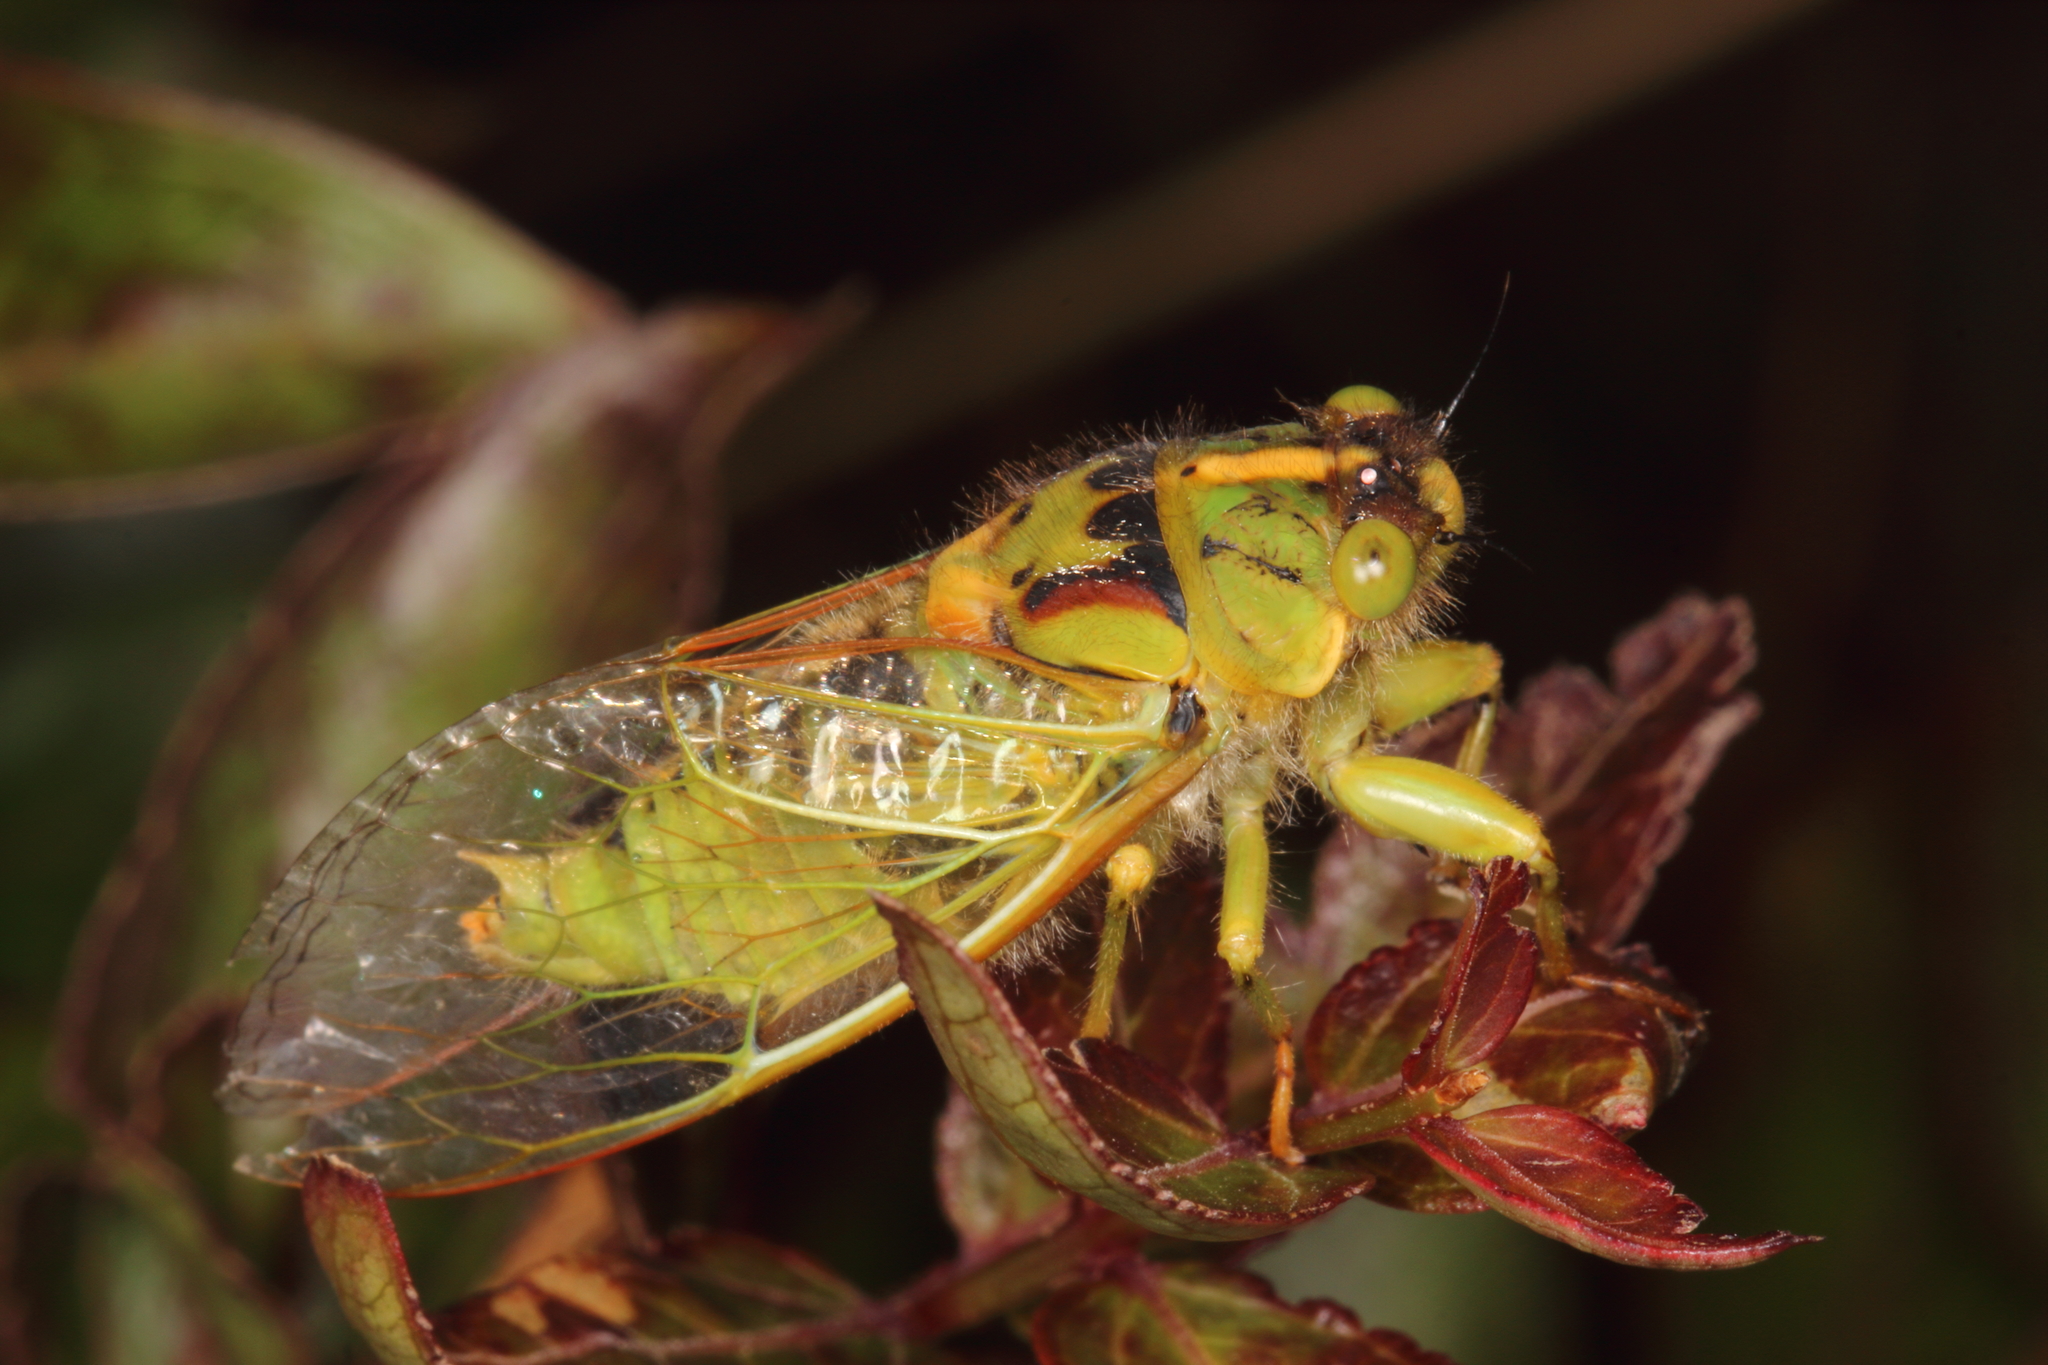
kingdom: Animalia
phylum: Arthropoda
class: Insecta
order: Hemiptera
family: Cicadidae
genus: Kikihia
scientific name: Kikihia subalpina
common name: Chathams cicada
